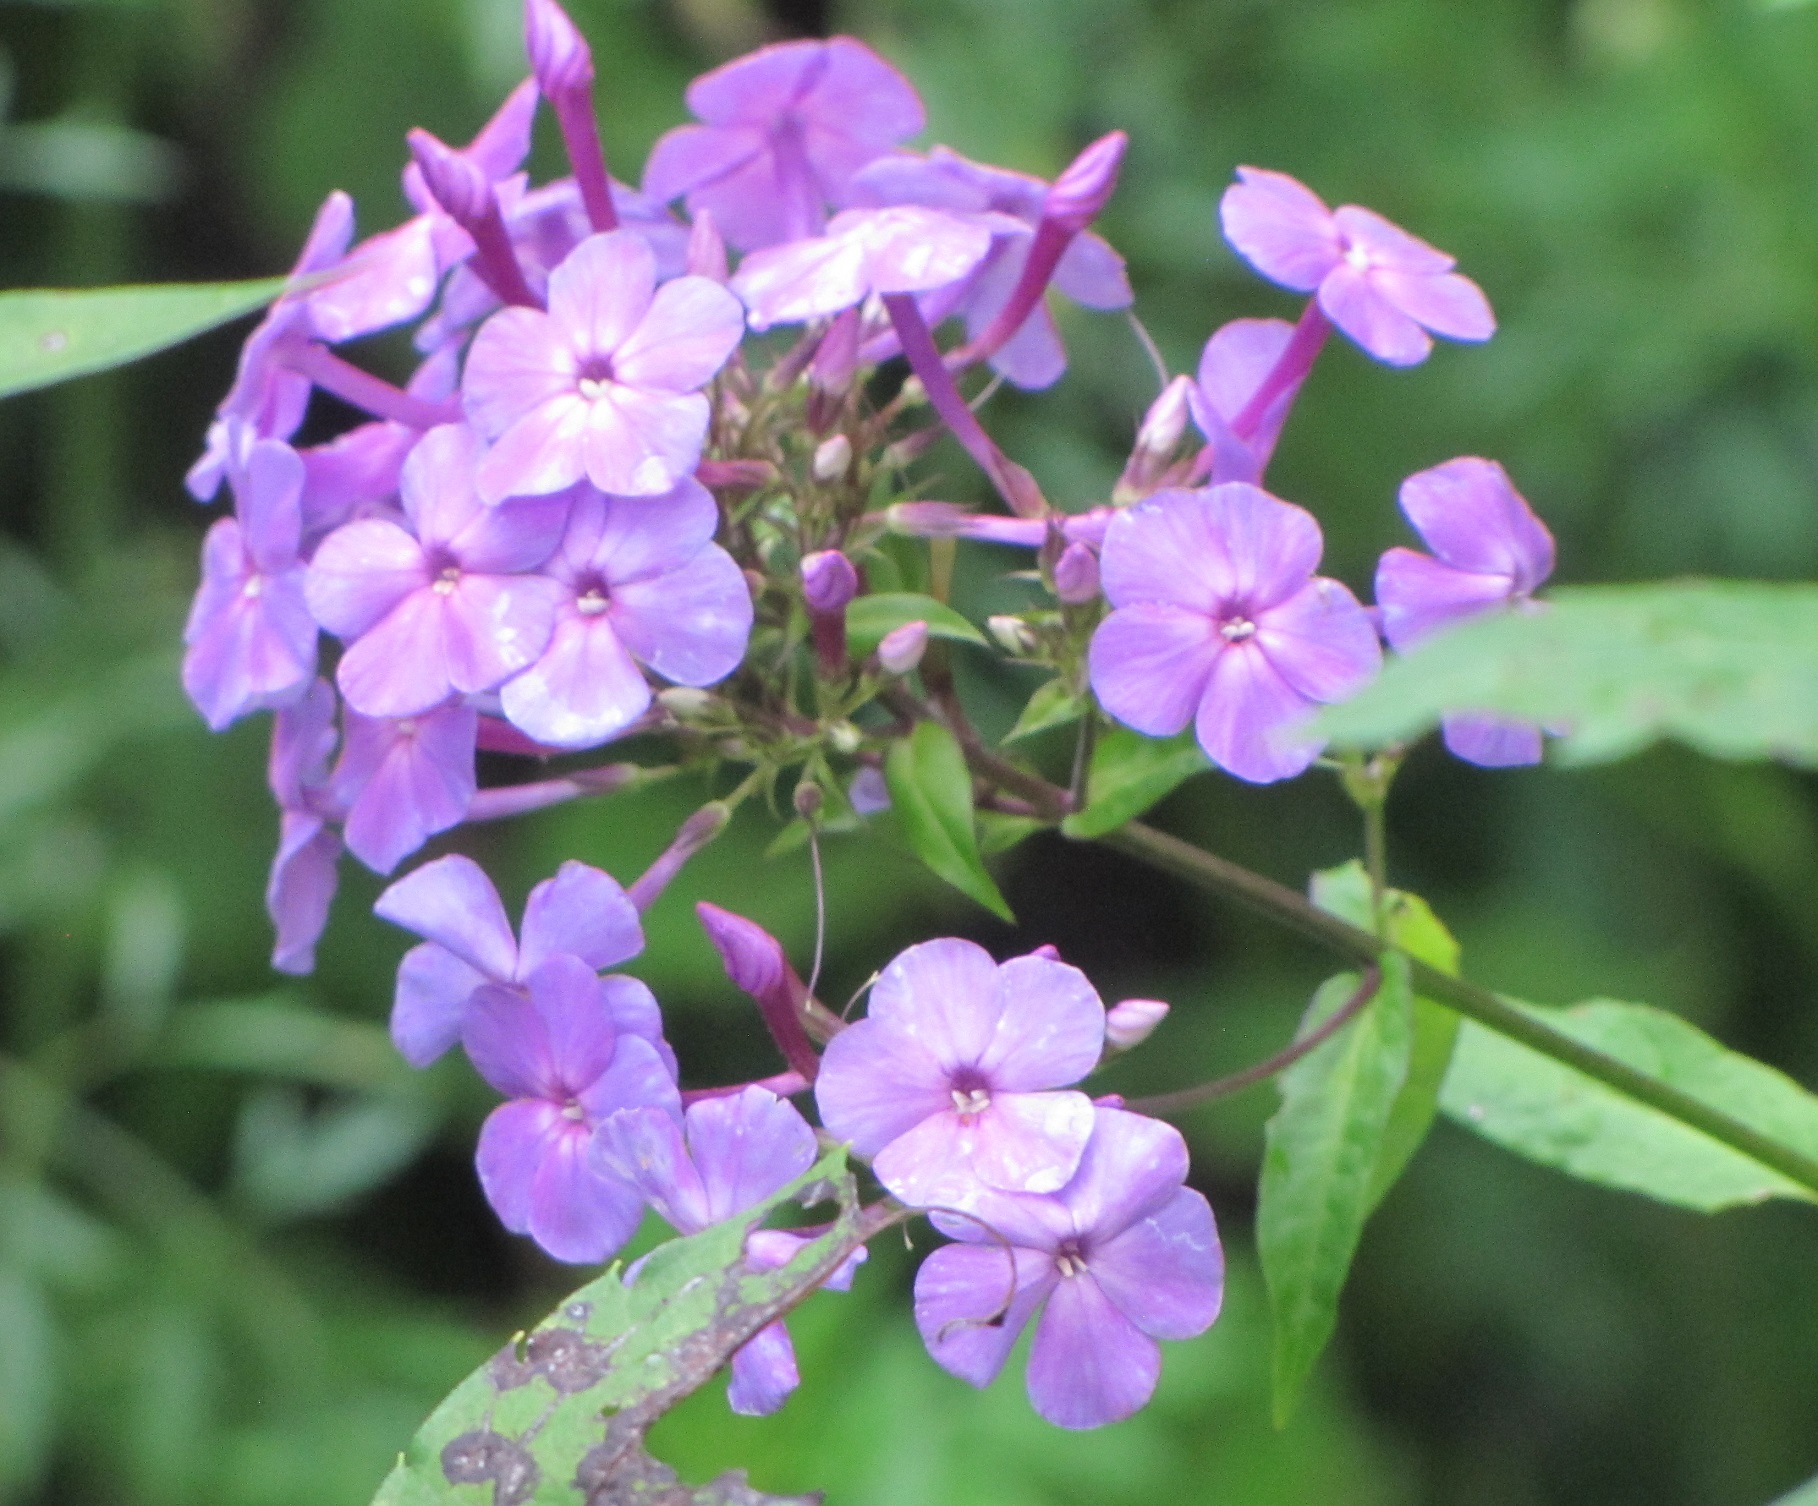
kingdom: Plantae
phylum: Tracheophyta
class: Magnoliopsida
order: Ericales
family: Polemoniaceae
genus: Phlox
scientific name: Phlox paniculata
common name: Fall phlox
